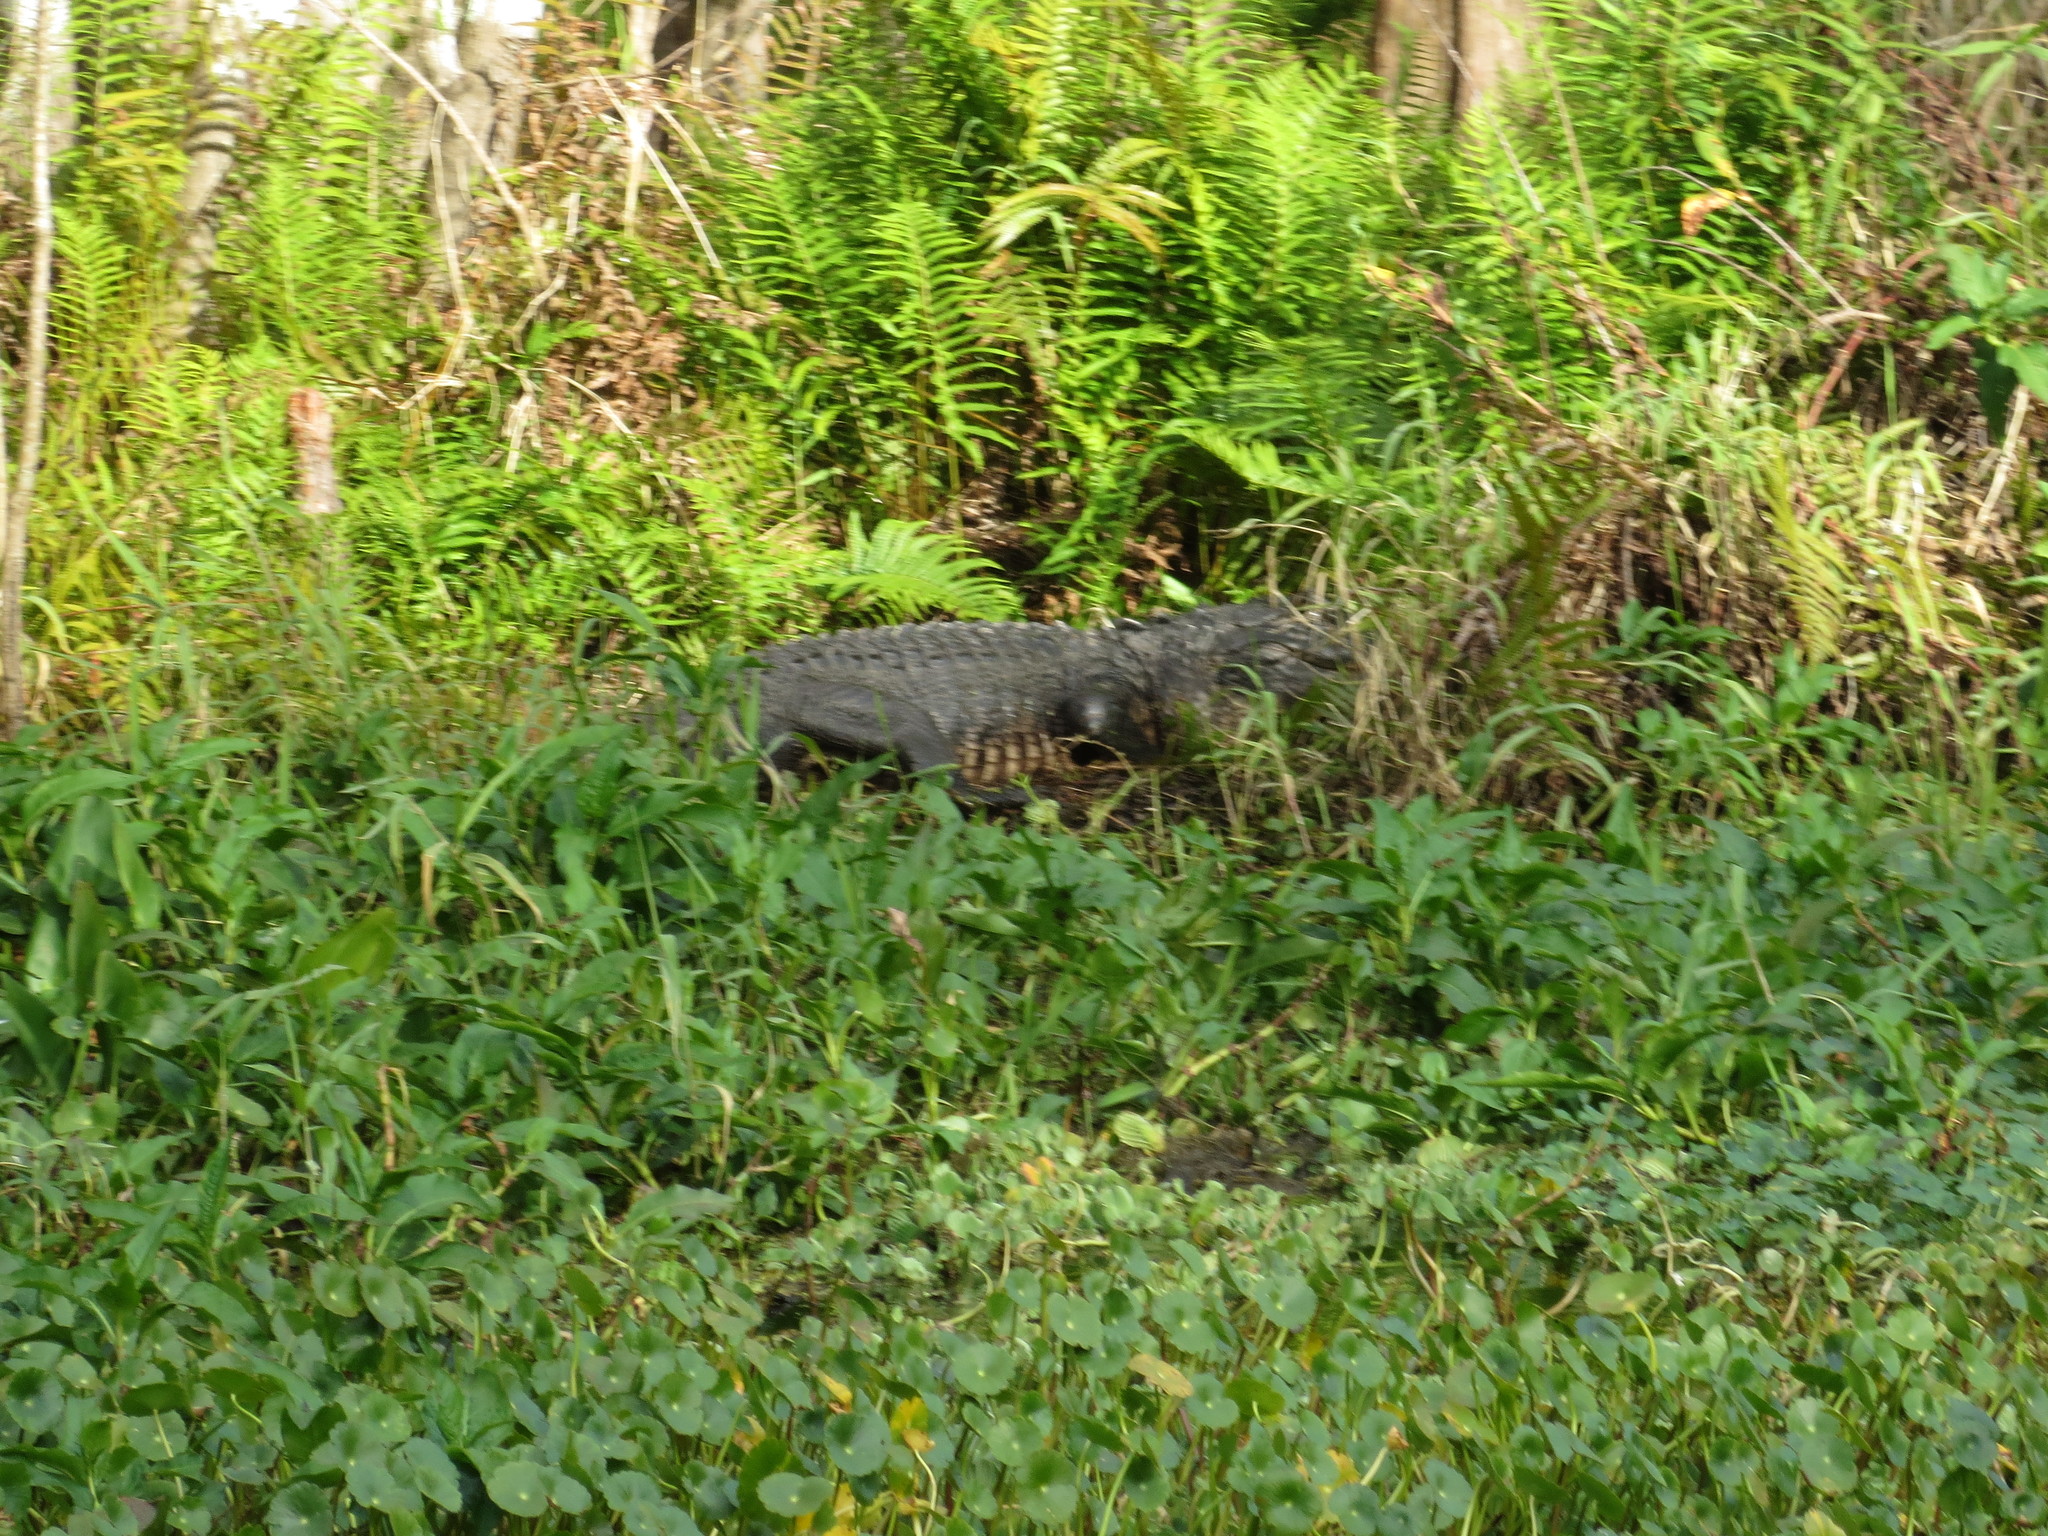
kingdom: Animalia
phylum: Chordata
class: Crocodylia
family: Alligatoridae
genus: Alligator
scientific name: Alligator mississippiensis
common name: American alligator
